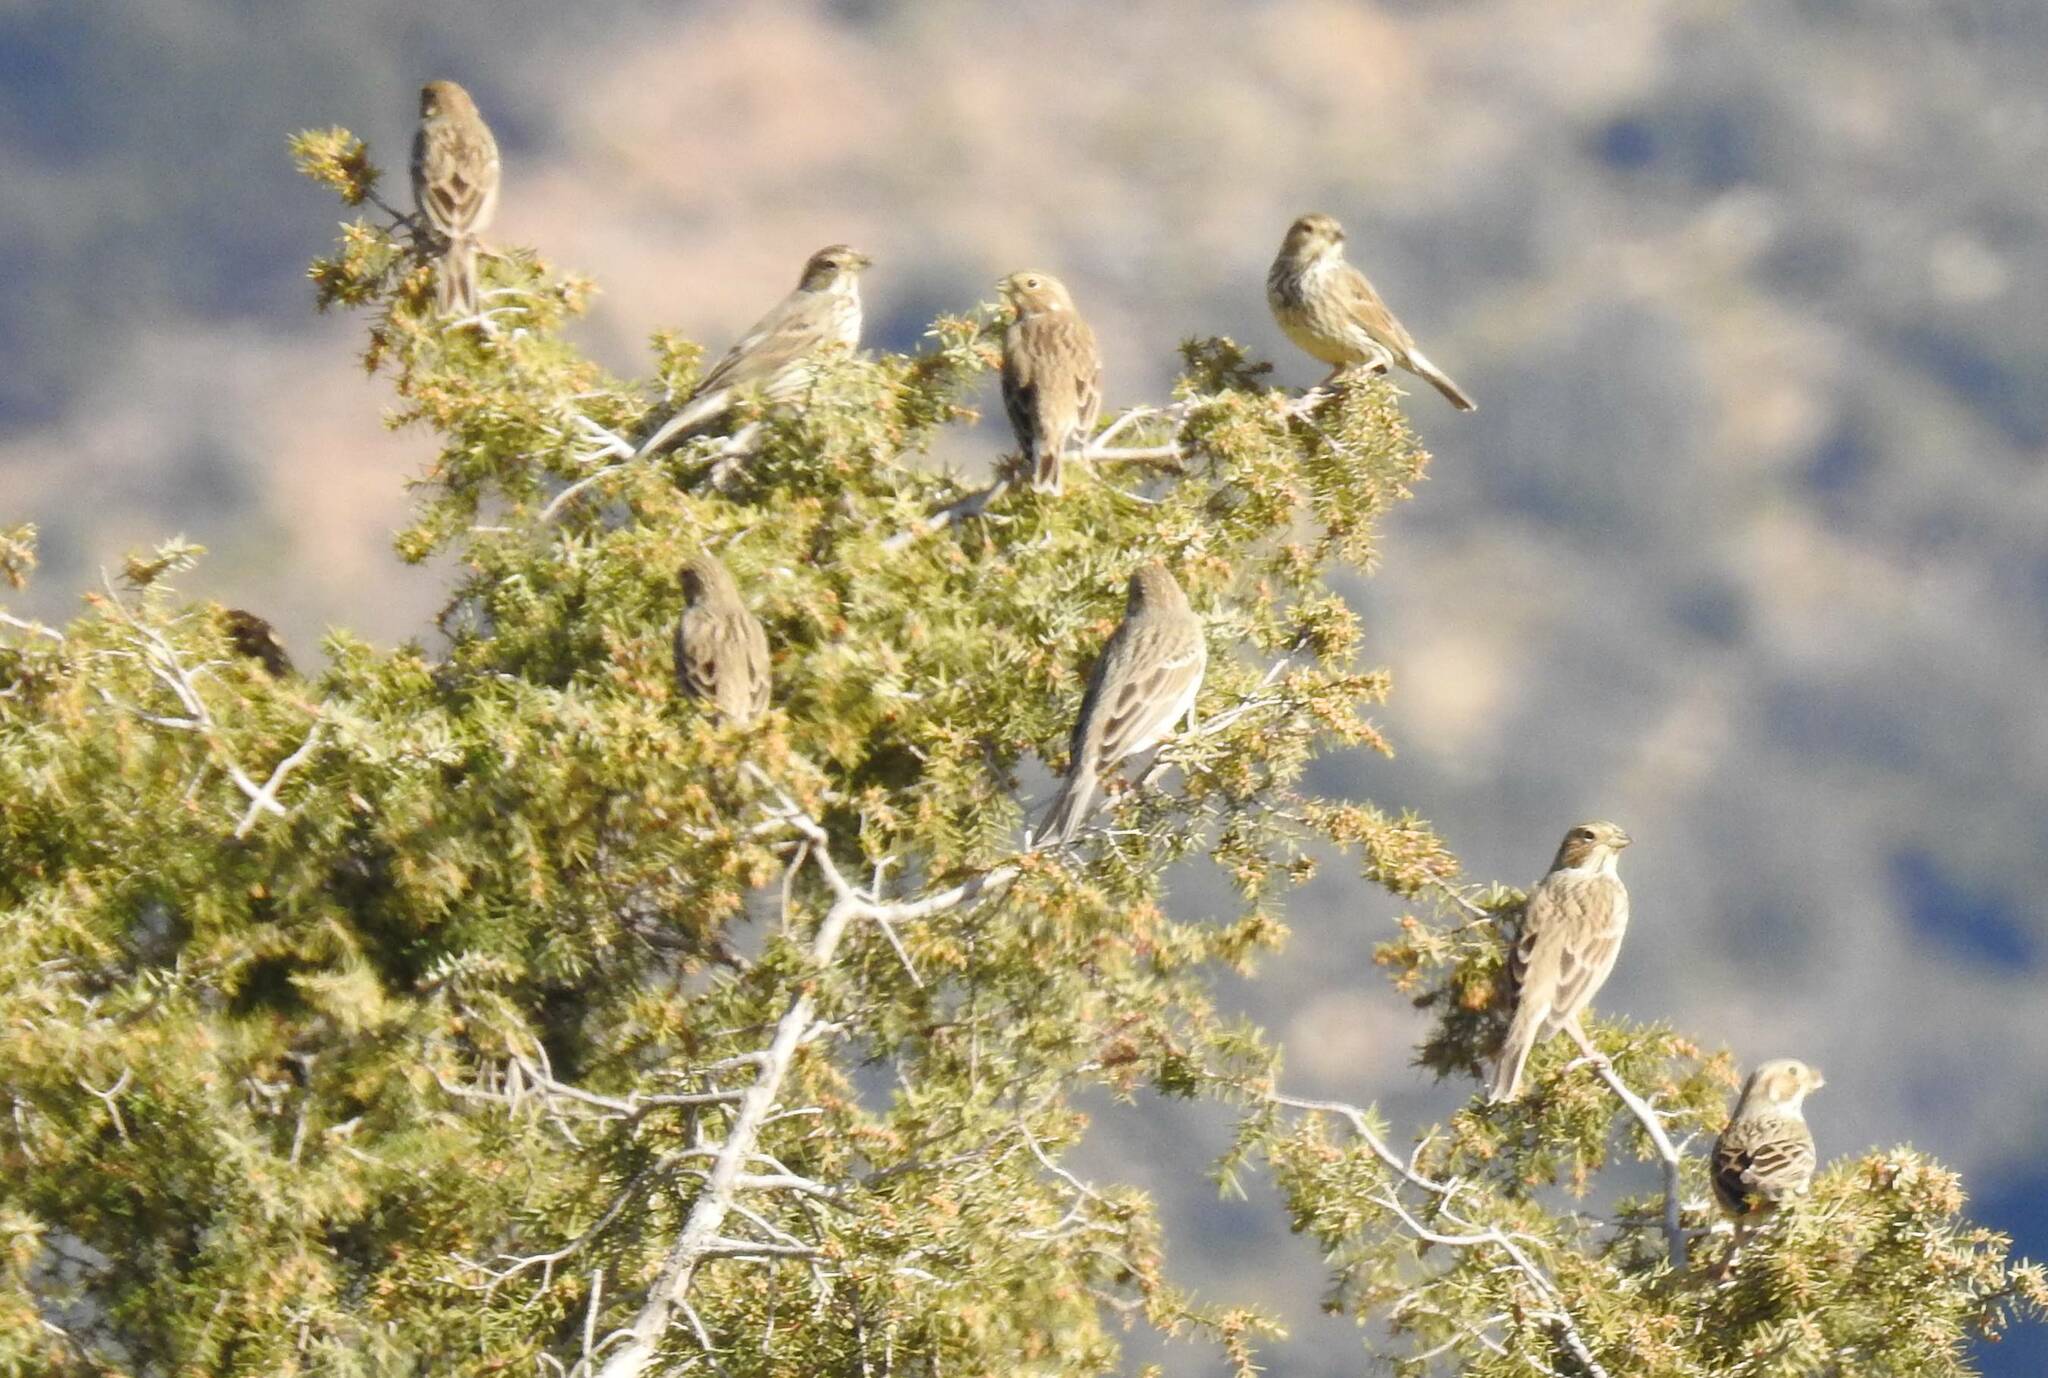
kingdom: Animalia
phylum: Chordata
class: Aves
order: Passeriformes
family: Emberizidae
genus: Emberiza
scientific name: Emberiza calandra
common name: Corn bunting
